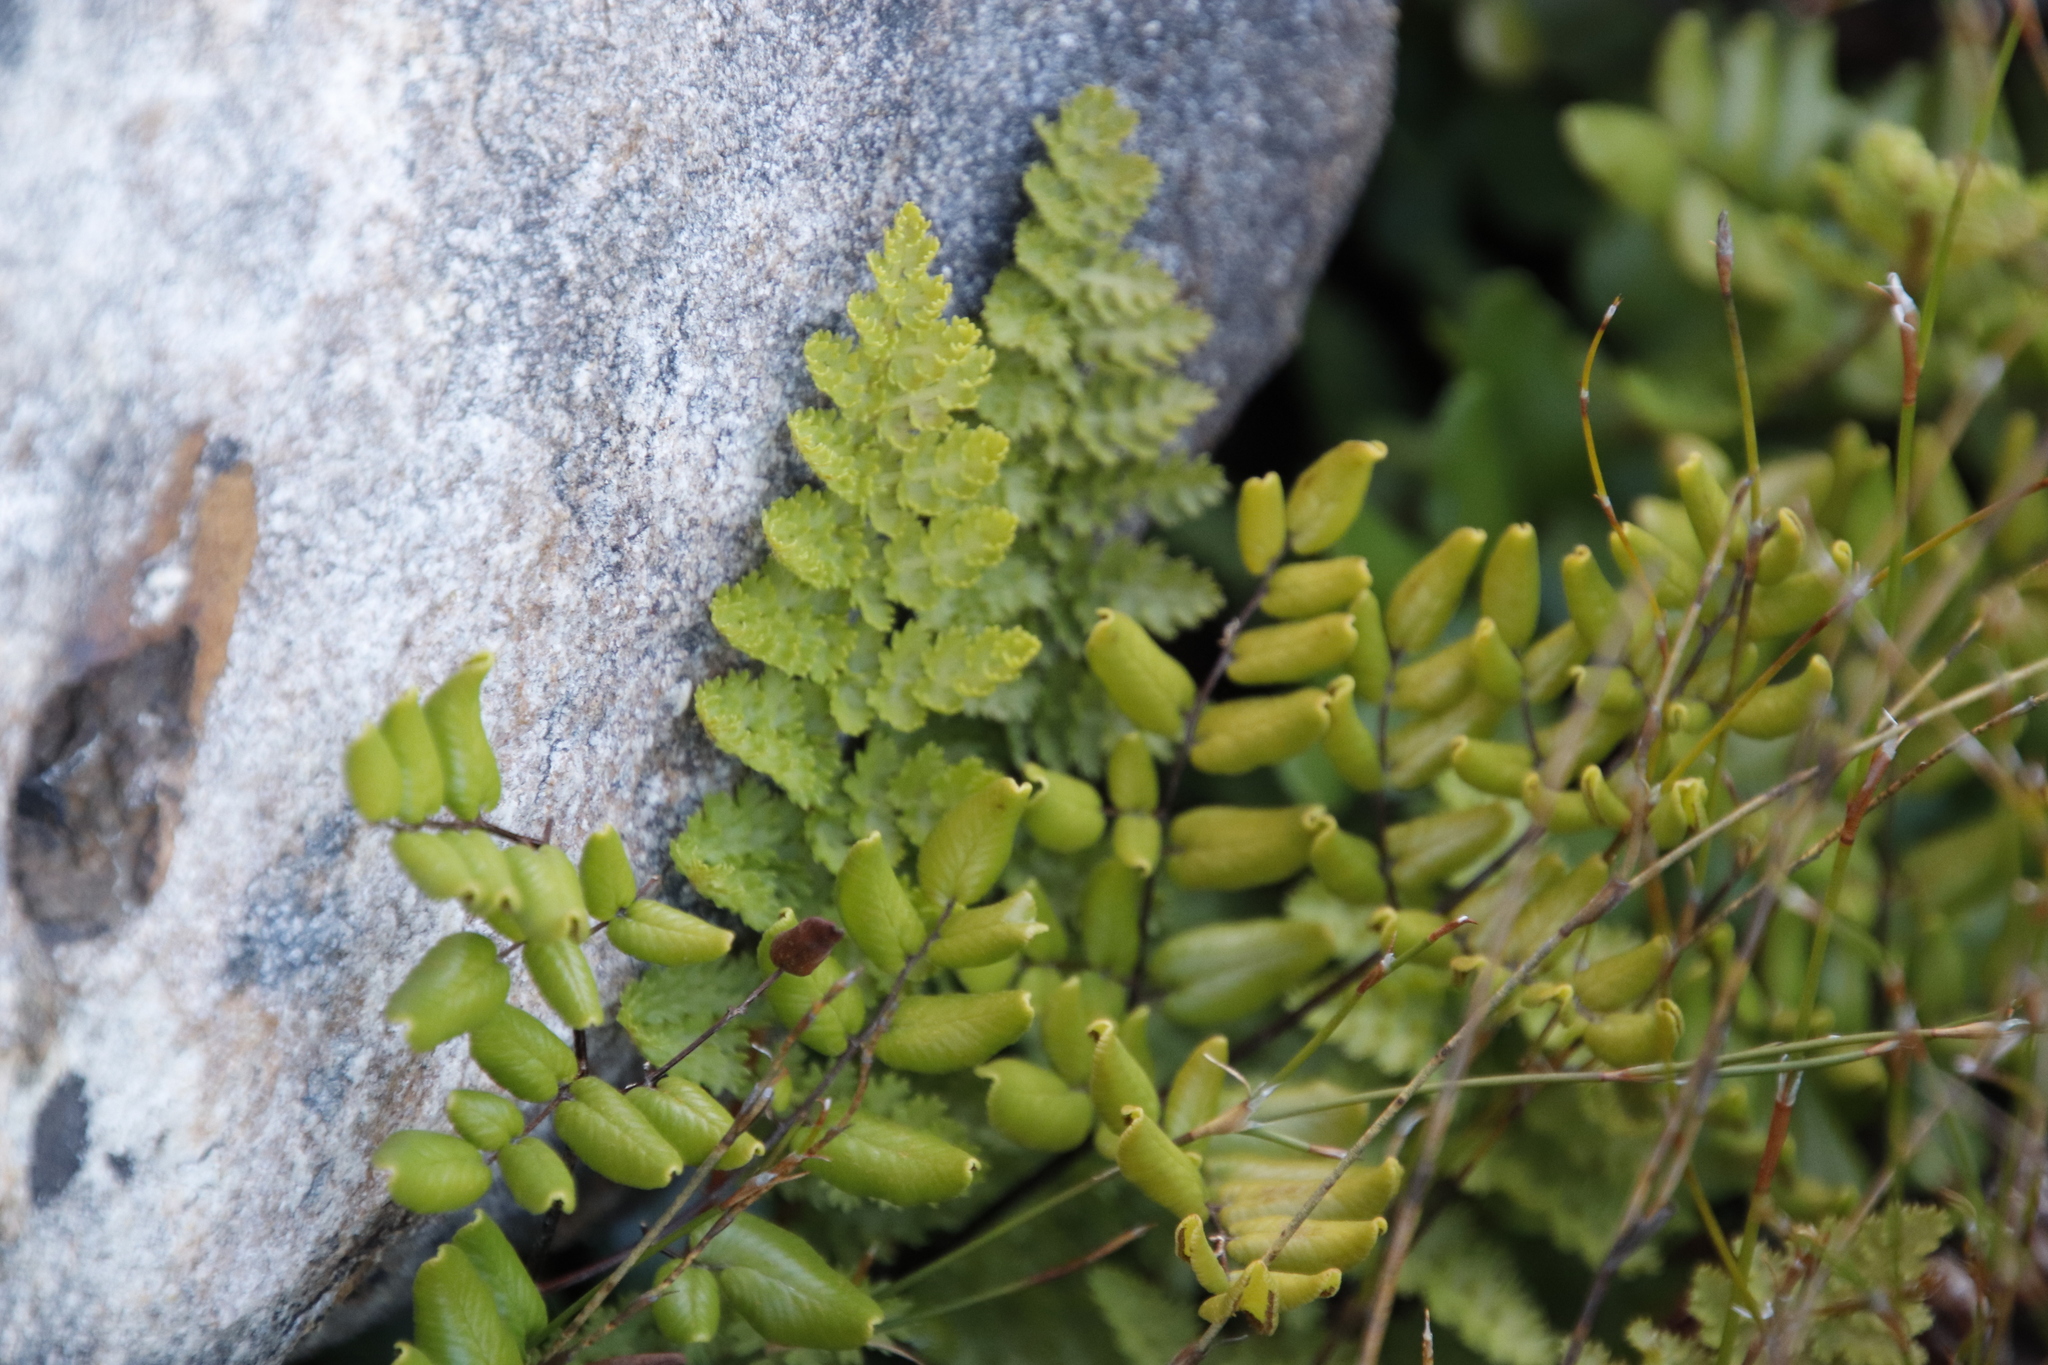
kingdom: Plantae
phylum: Tracheophyta
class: Polypodiopsida
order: Schizaeales
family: Anemiaceae
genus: Anemia
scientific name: Anemia caffrorum
